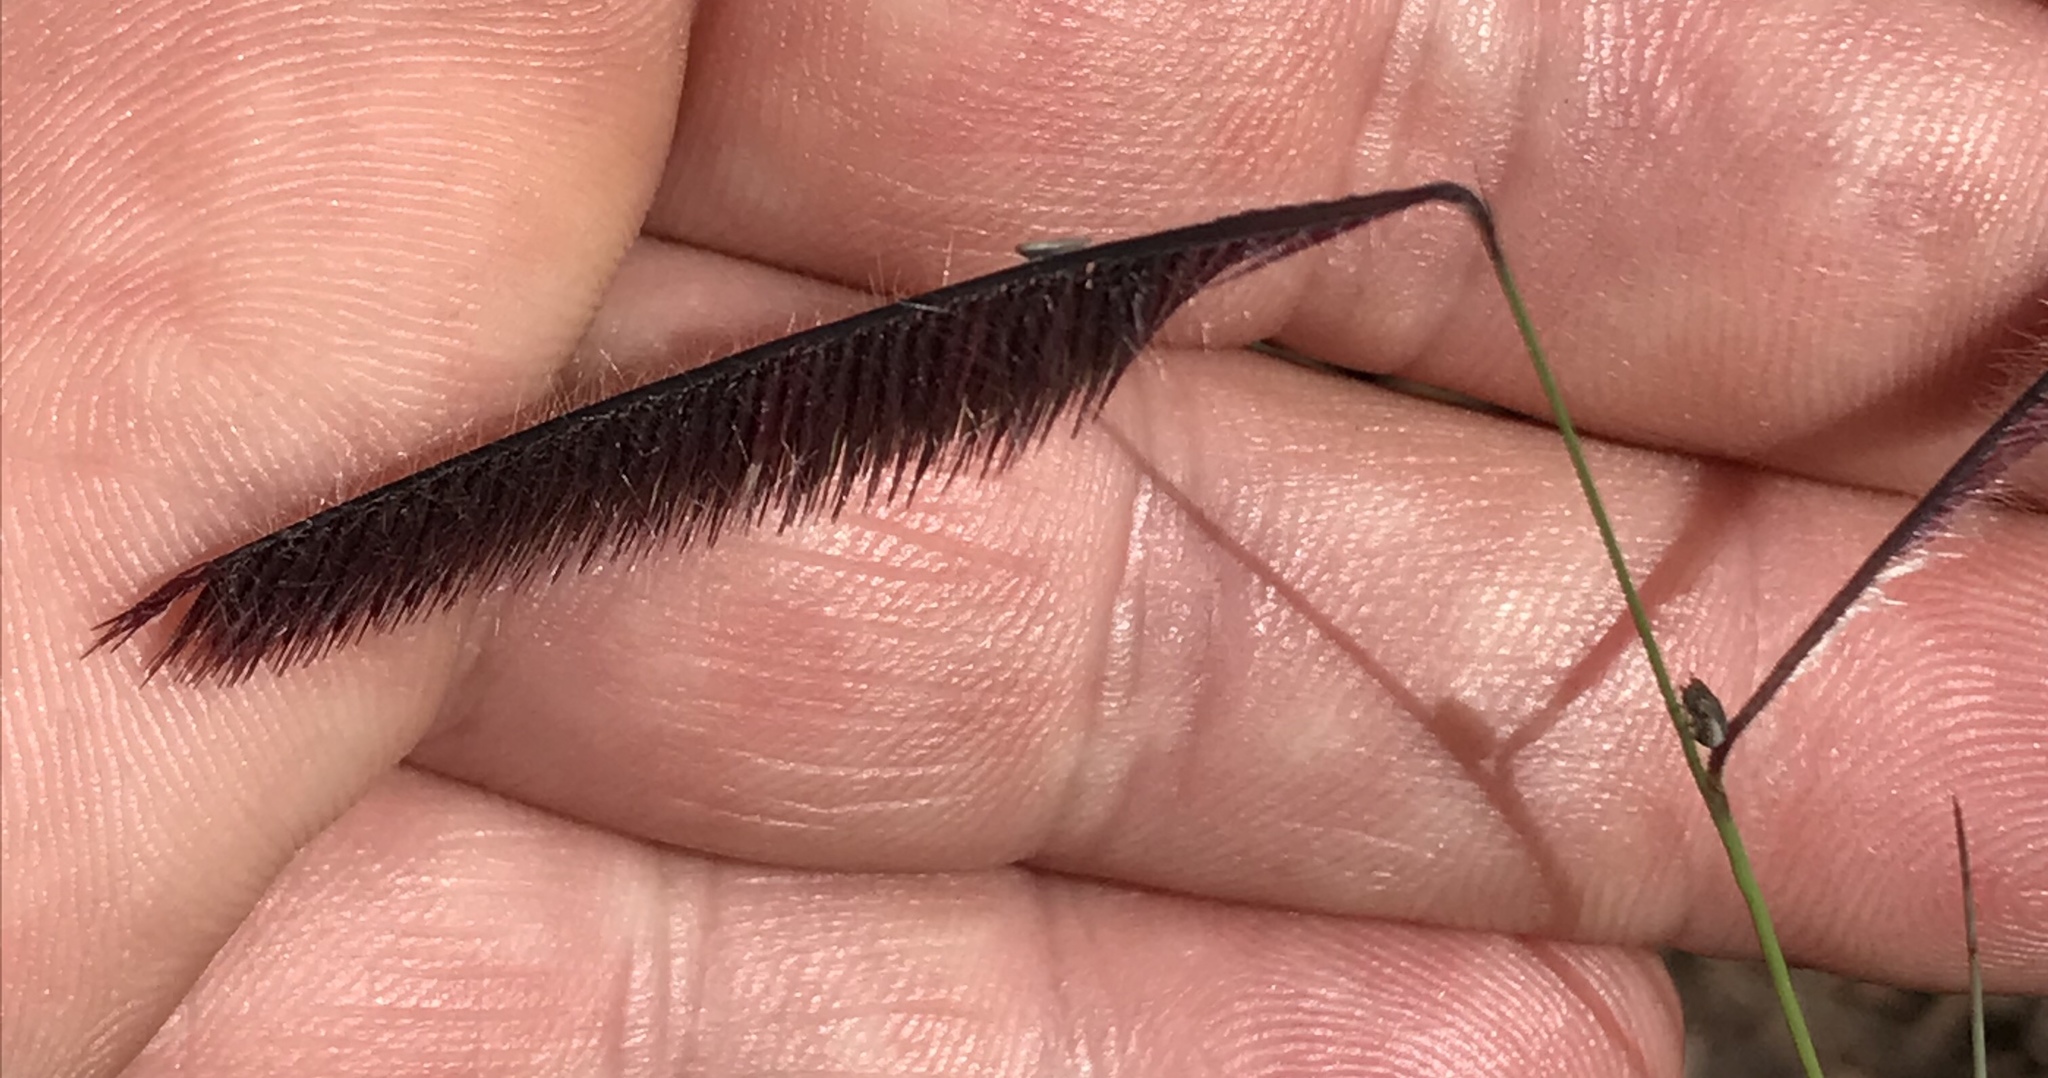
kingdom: Plantae
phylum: Tracheophyta
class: Liliopsida
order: Poales
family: Poaceae
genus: Bouteloua
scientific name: Bouteloua gracilis
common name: Blue grama
